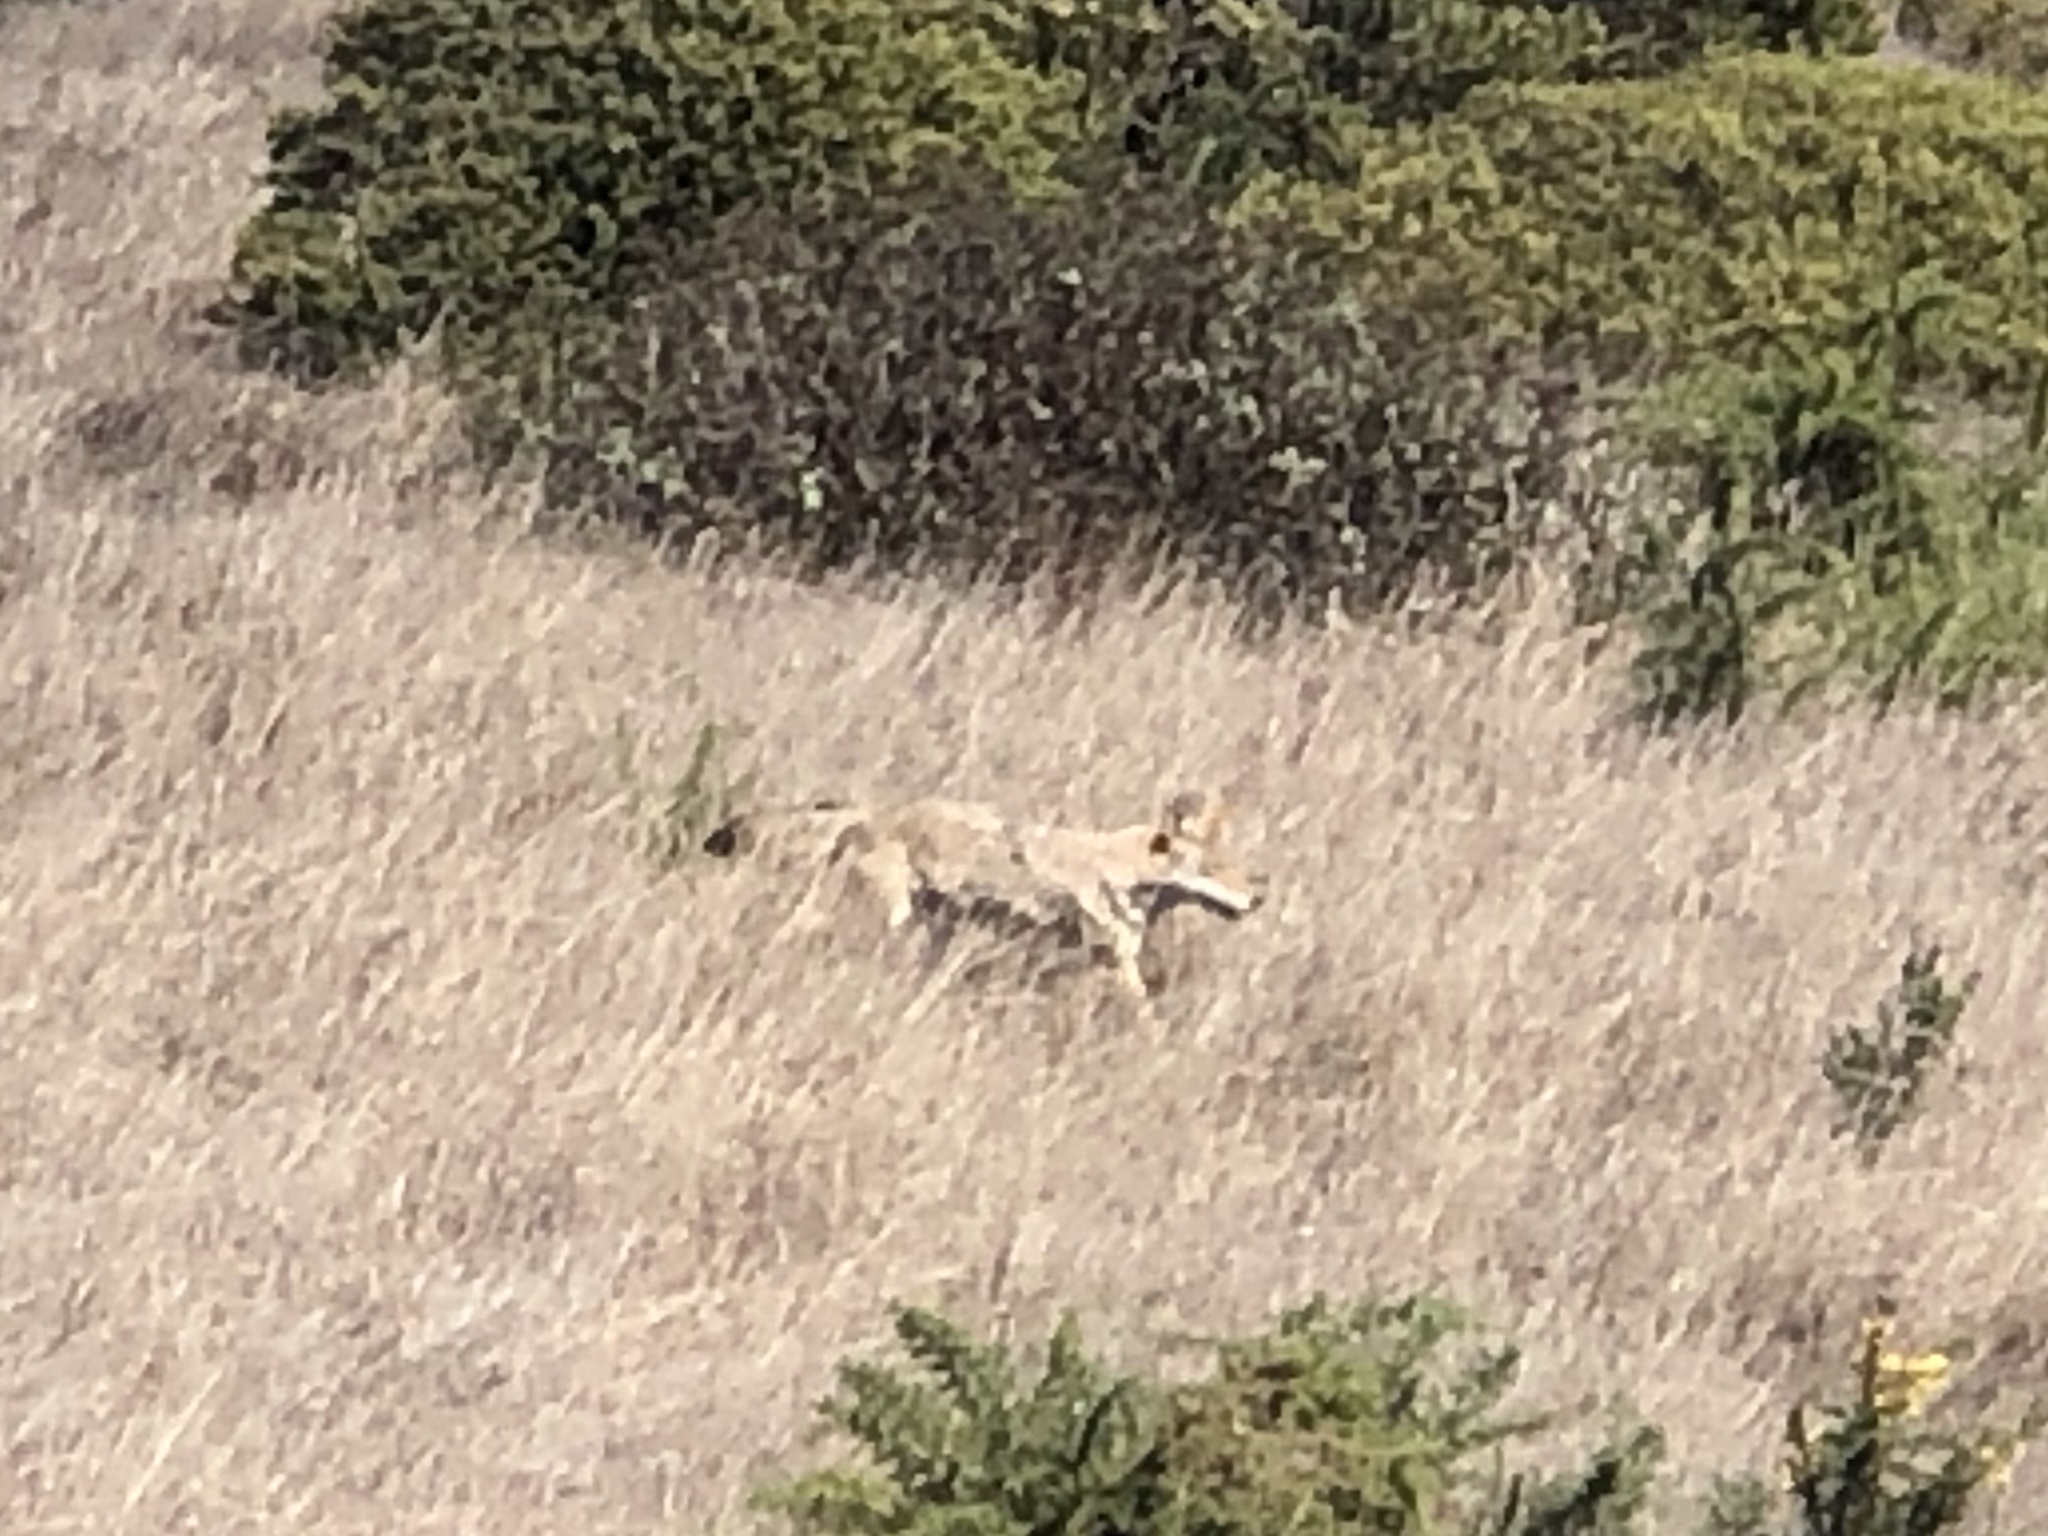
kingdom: Animalia
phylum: Chordata
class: Mammalia
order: Carnivora
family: Canidae
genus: Canis
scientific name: Canis latrans
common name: Coyote
